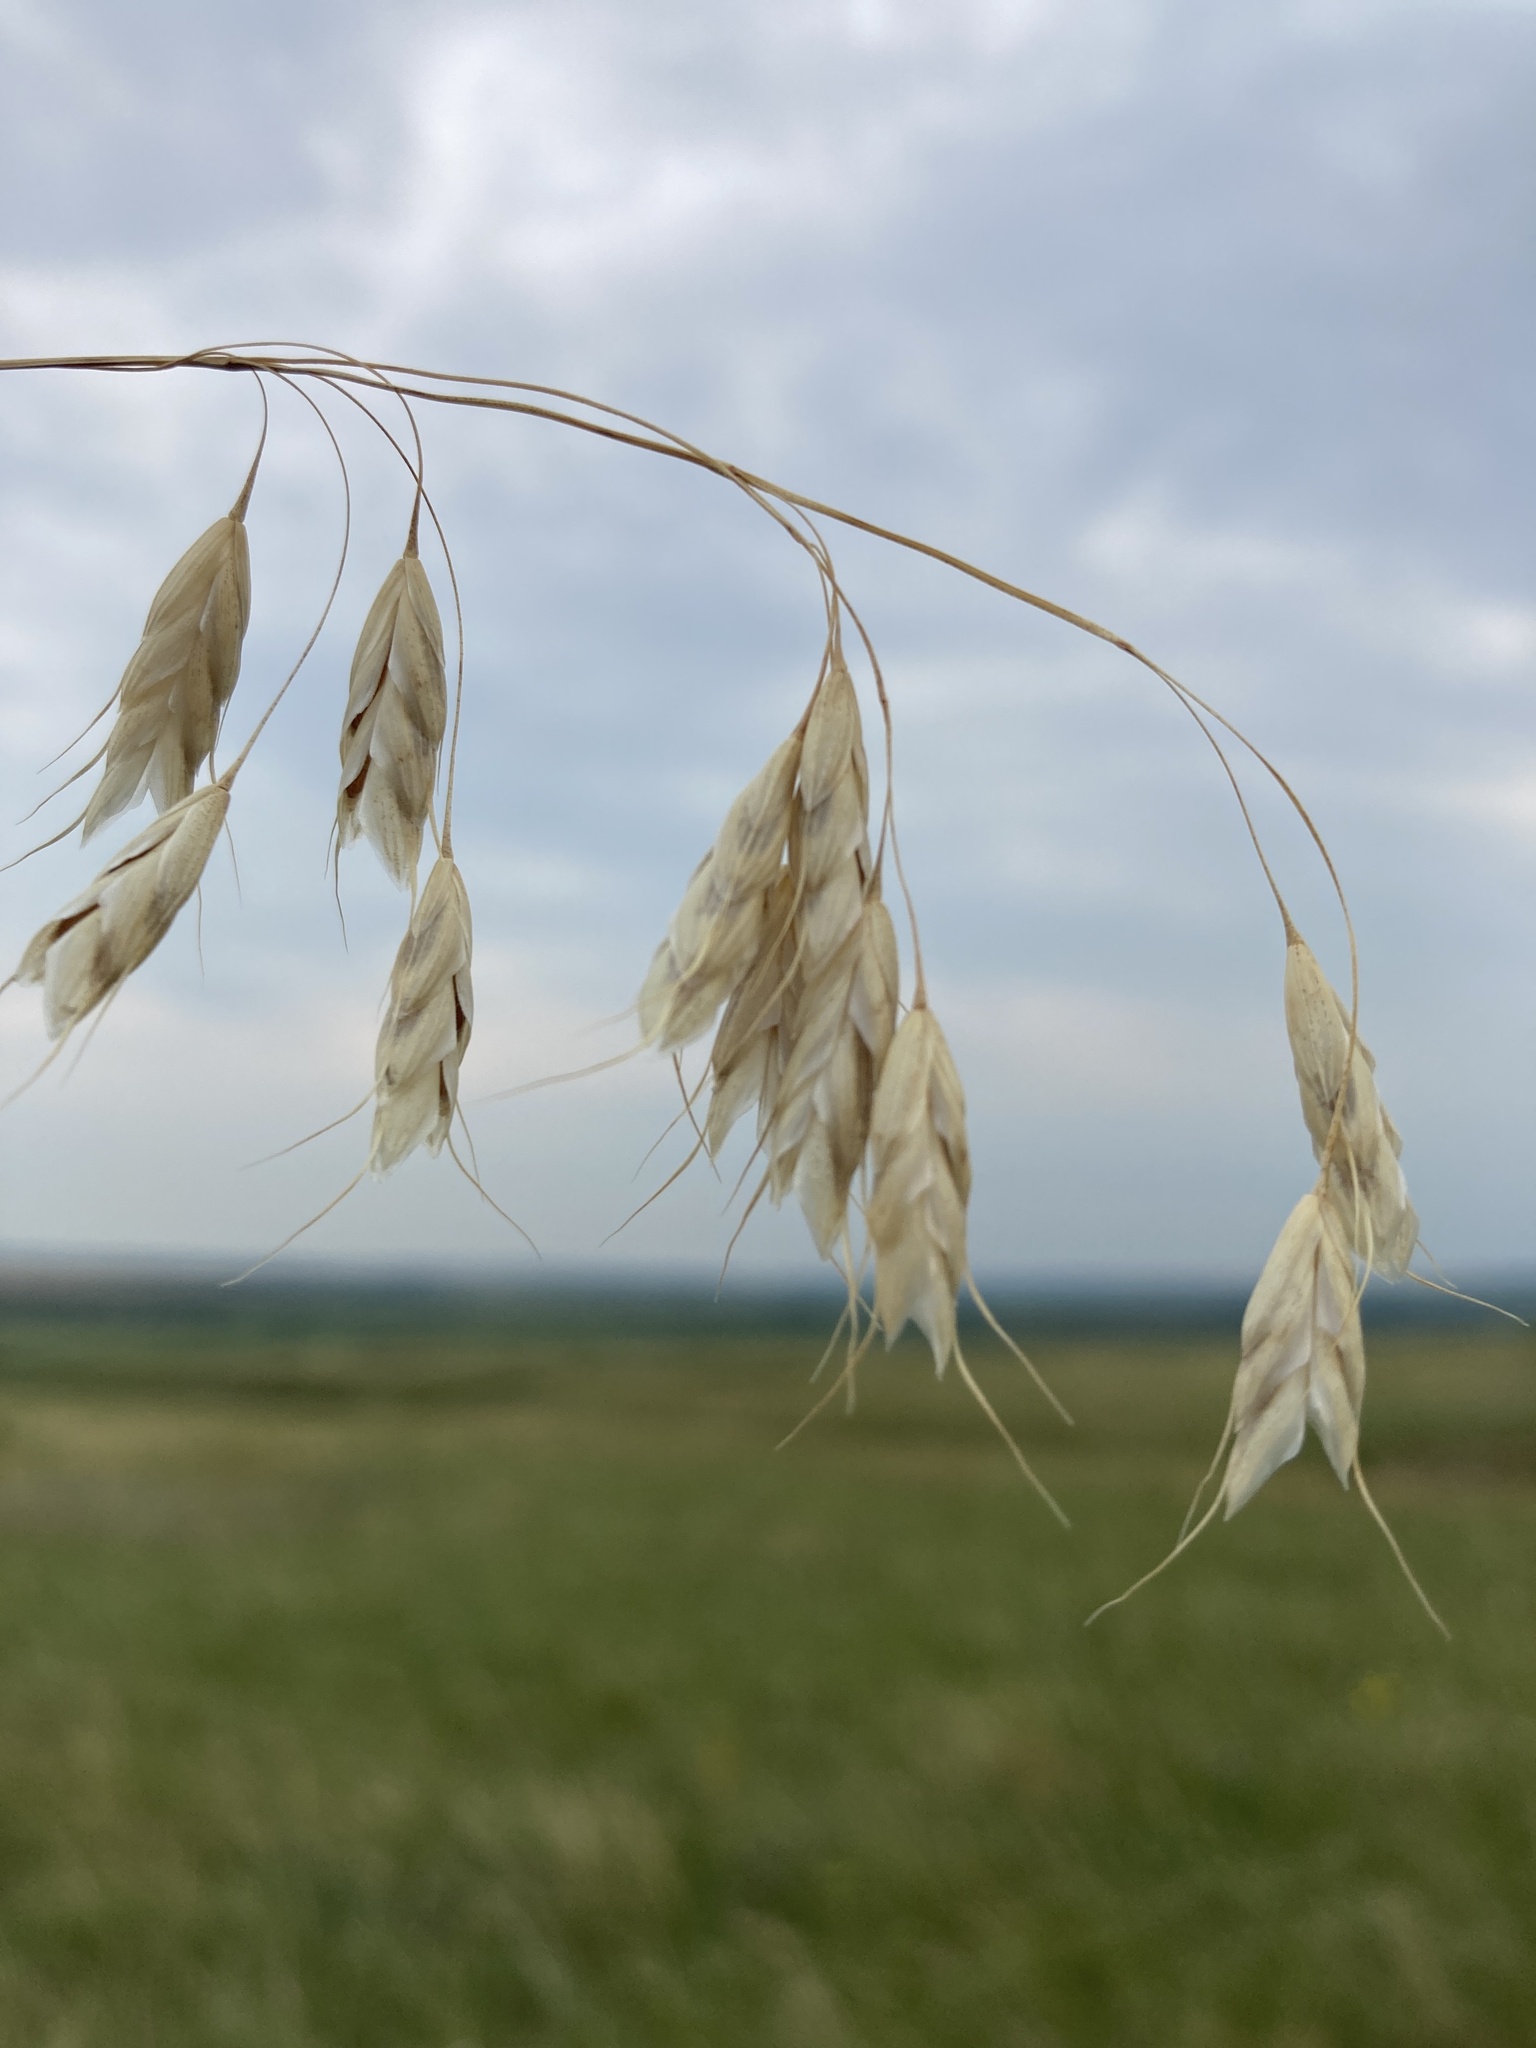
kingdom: Plantae
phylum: Tracheophyta
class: Liliopsida
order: Poales
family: Poaceae
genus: Bromus
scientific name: Bromus squarrosus
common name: Corn brome
